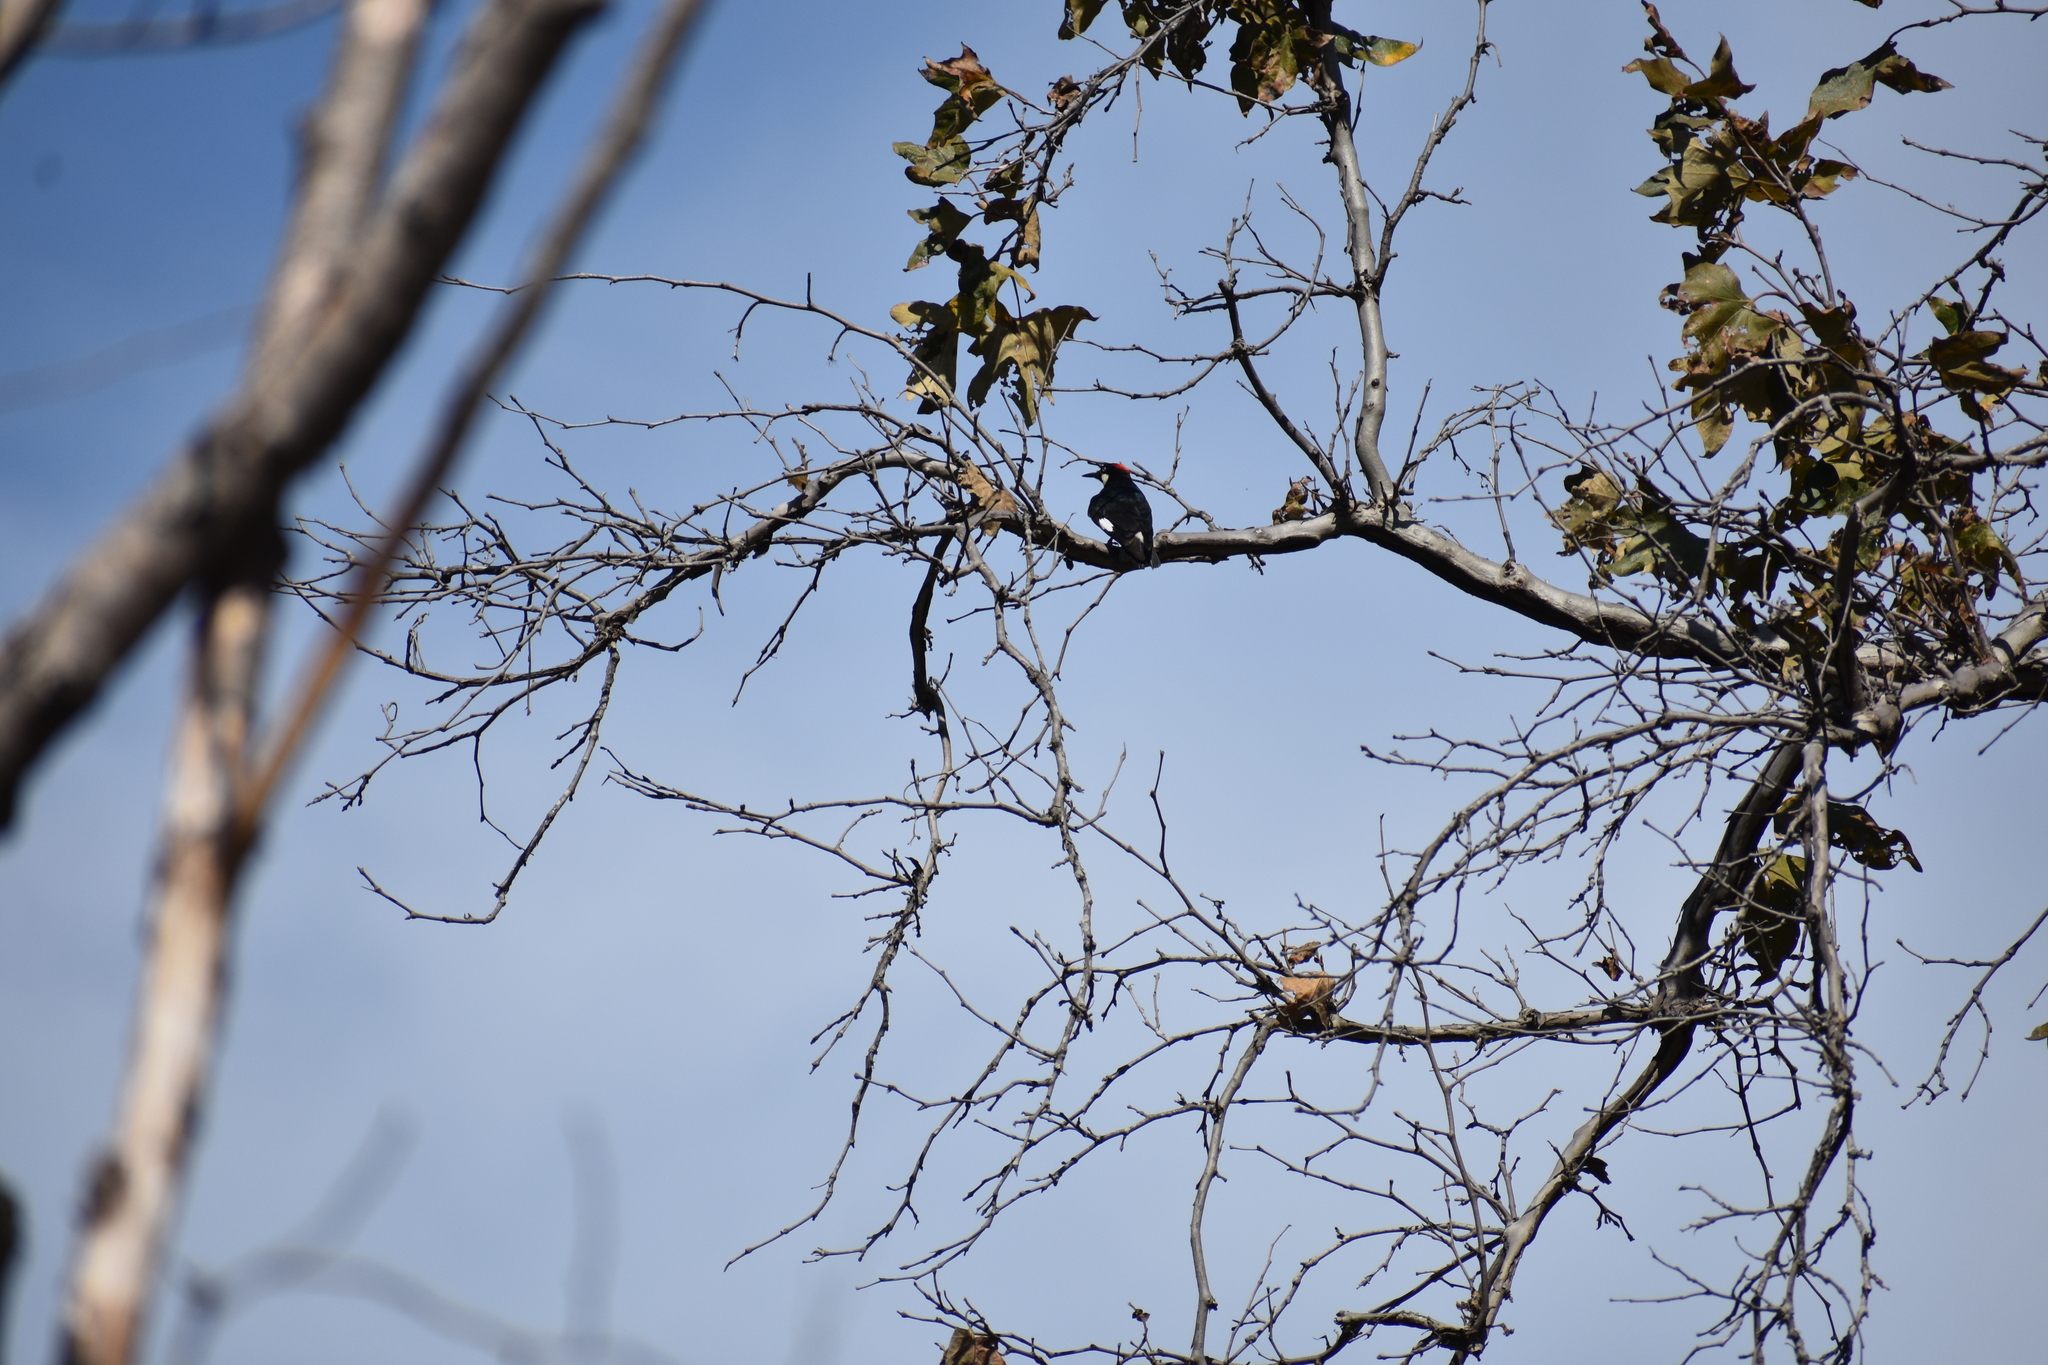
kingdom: Animalia
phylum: Chordata
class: Aves
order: Piciformes
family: Picidae
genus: Melanerpes
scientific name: Melanerpes formicivorus
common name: Acorn woodpecker
